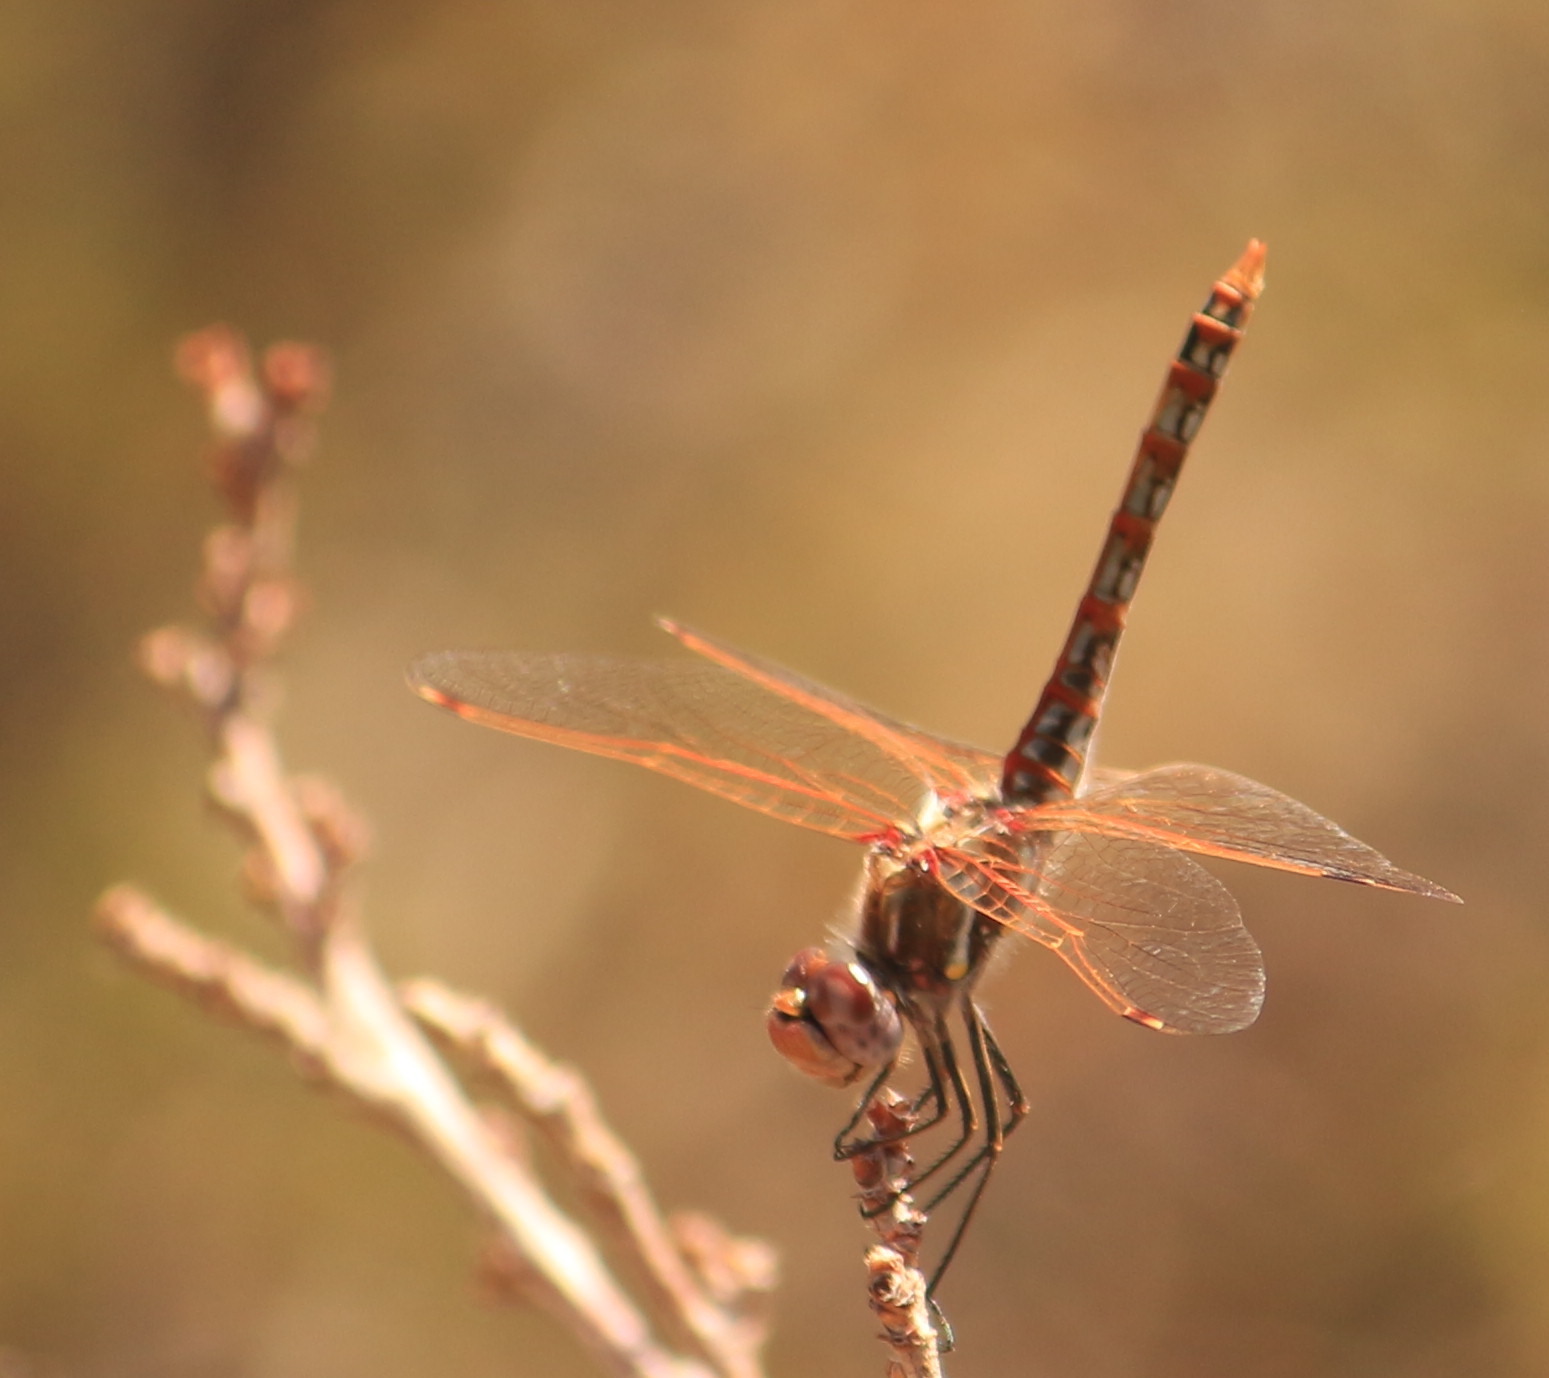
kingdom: Animalia
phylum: Arthropoda
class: Insecta
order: Odonata
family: Libellulidae
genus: Sympetrum
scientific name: Sympetrum corruptum
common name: Variegated meadowhawk
